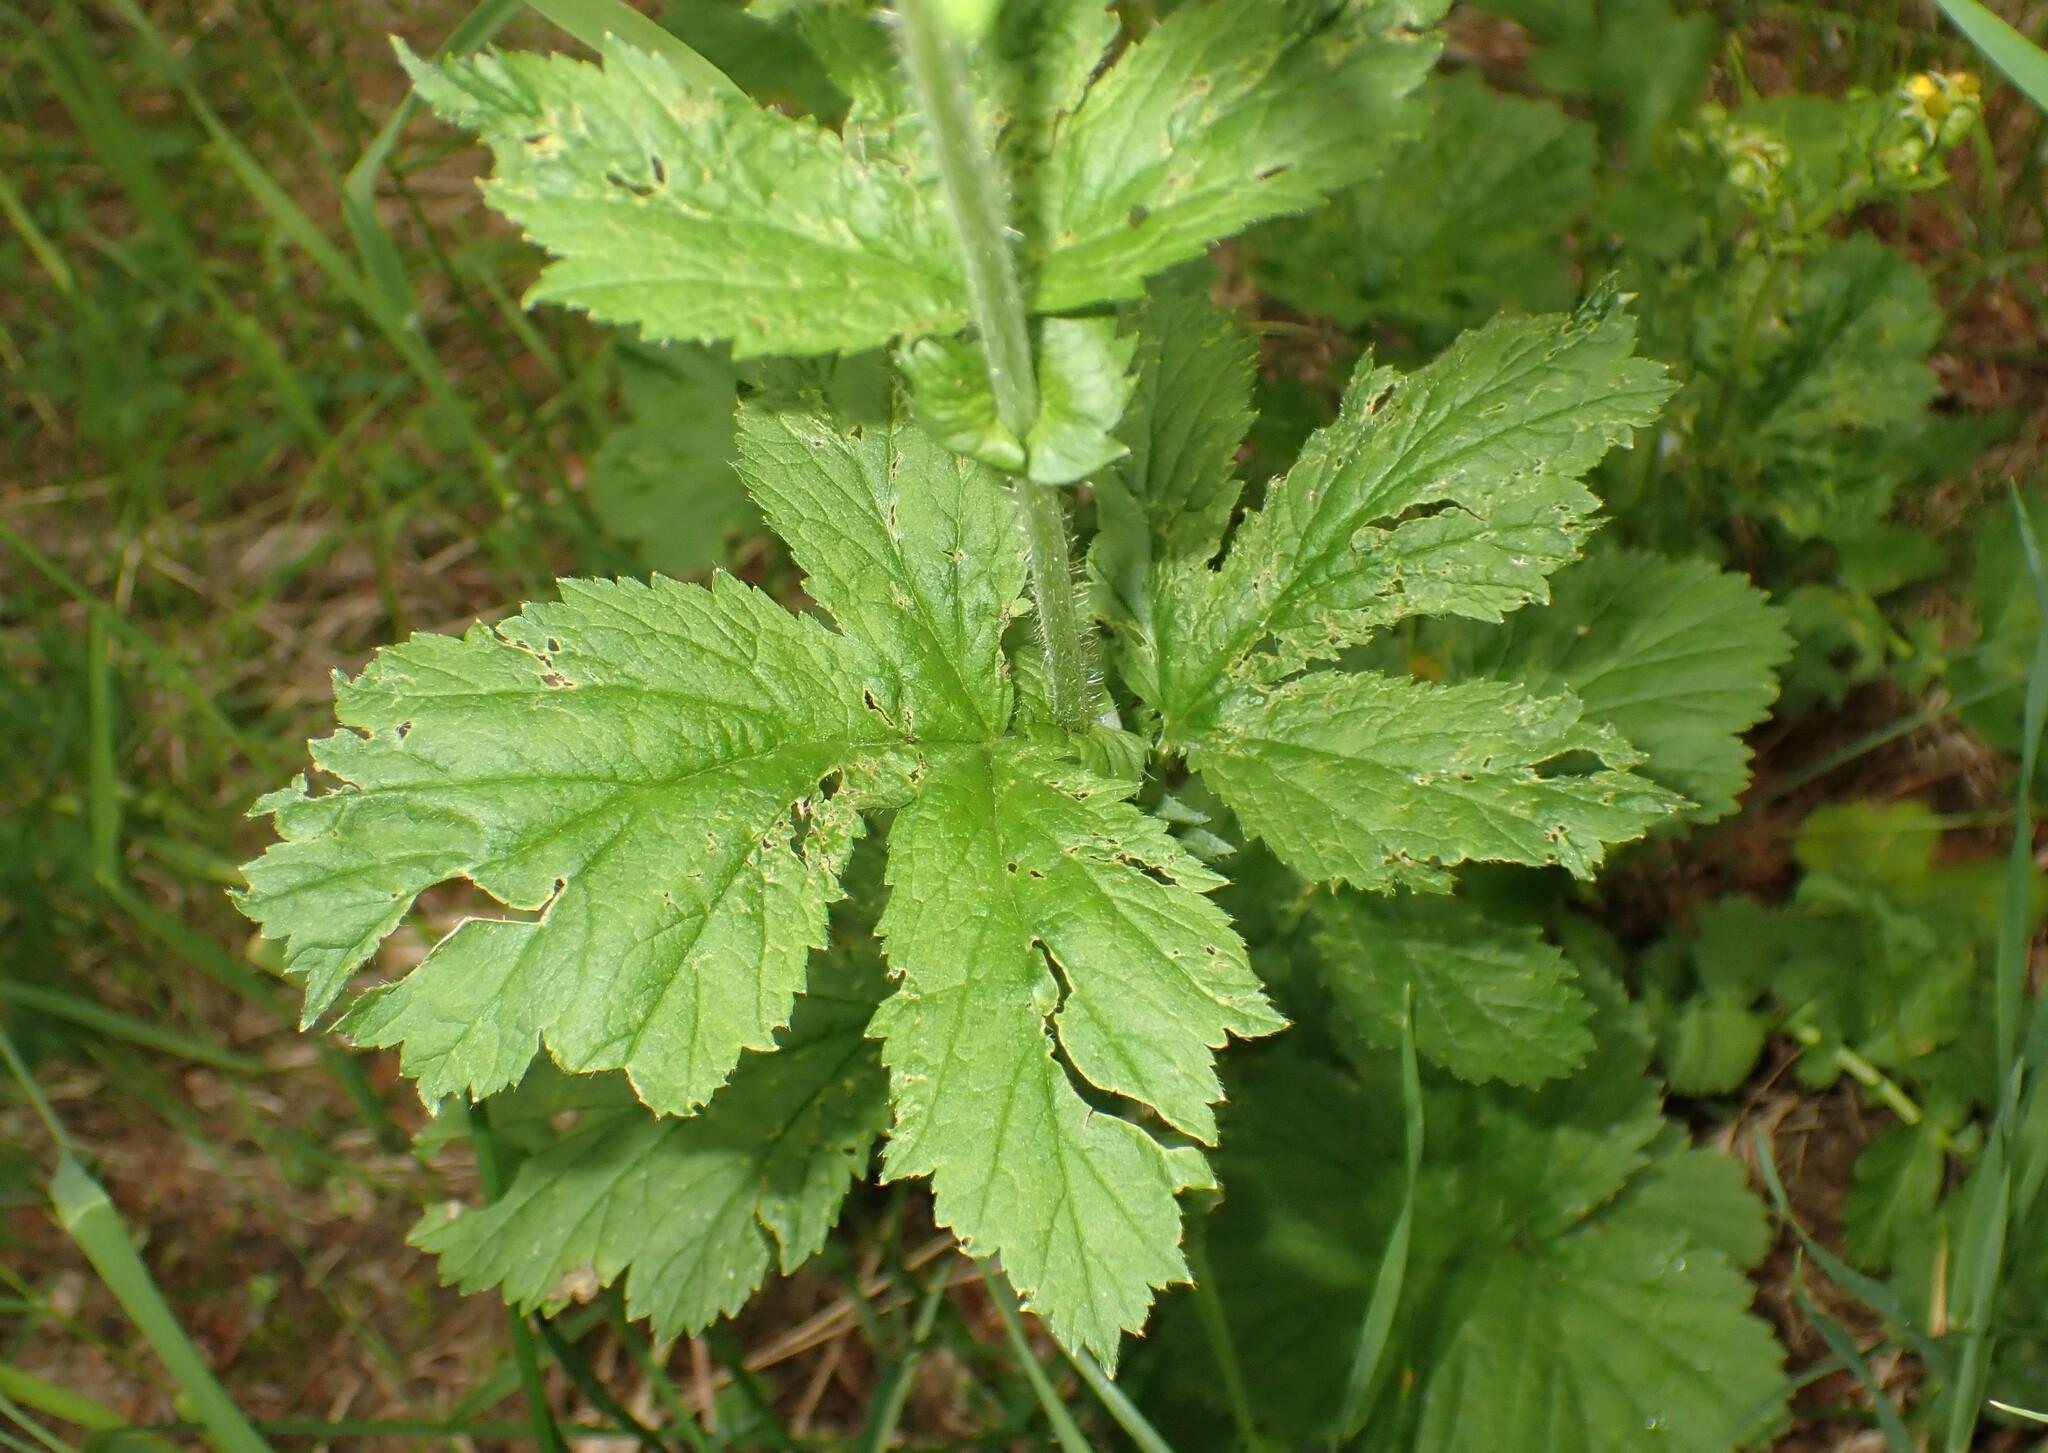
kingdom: Plantae
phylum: Tracheophyta
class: Magnoliopsida
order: Rosales
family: Rosaceae
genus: Geum
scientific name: Geum macrophyllum
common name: Large-leaved avens
